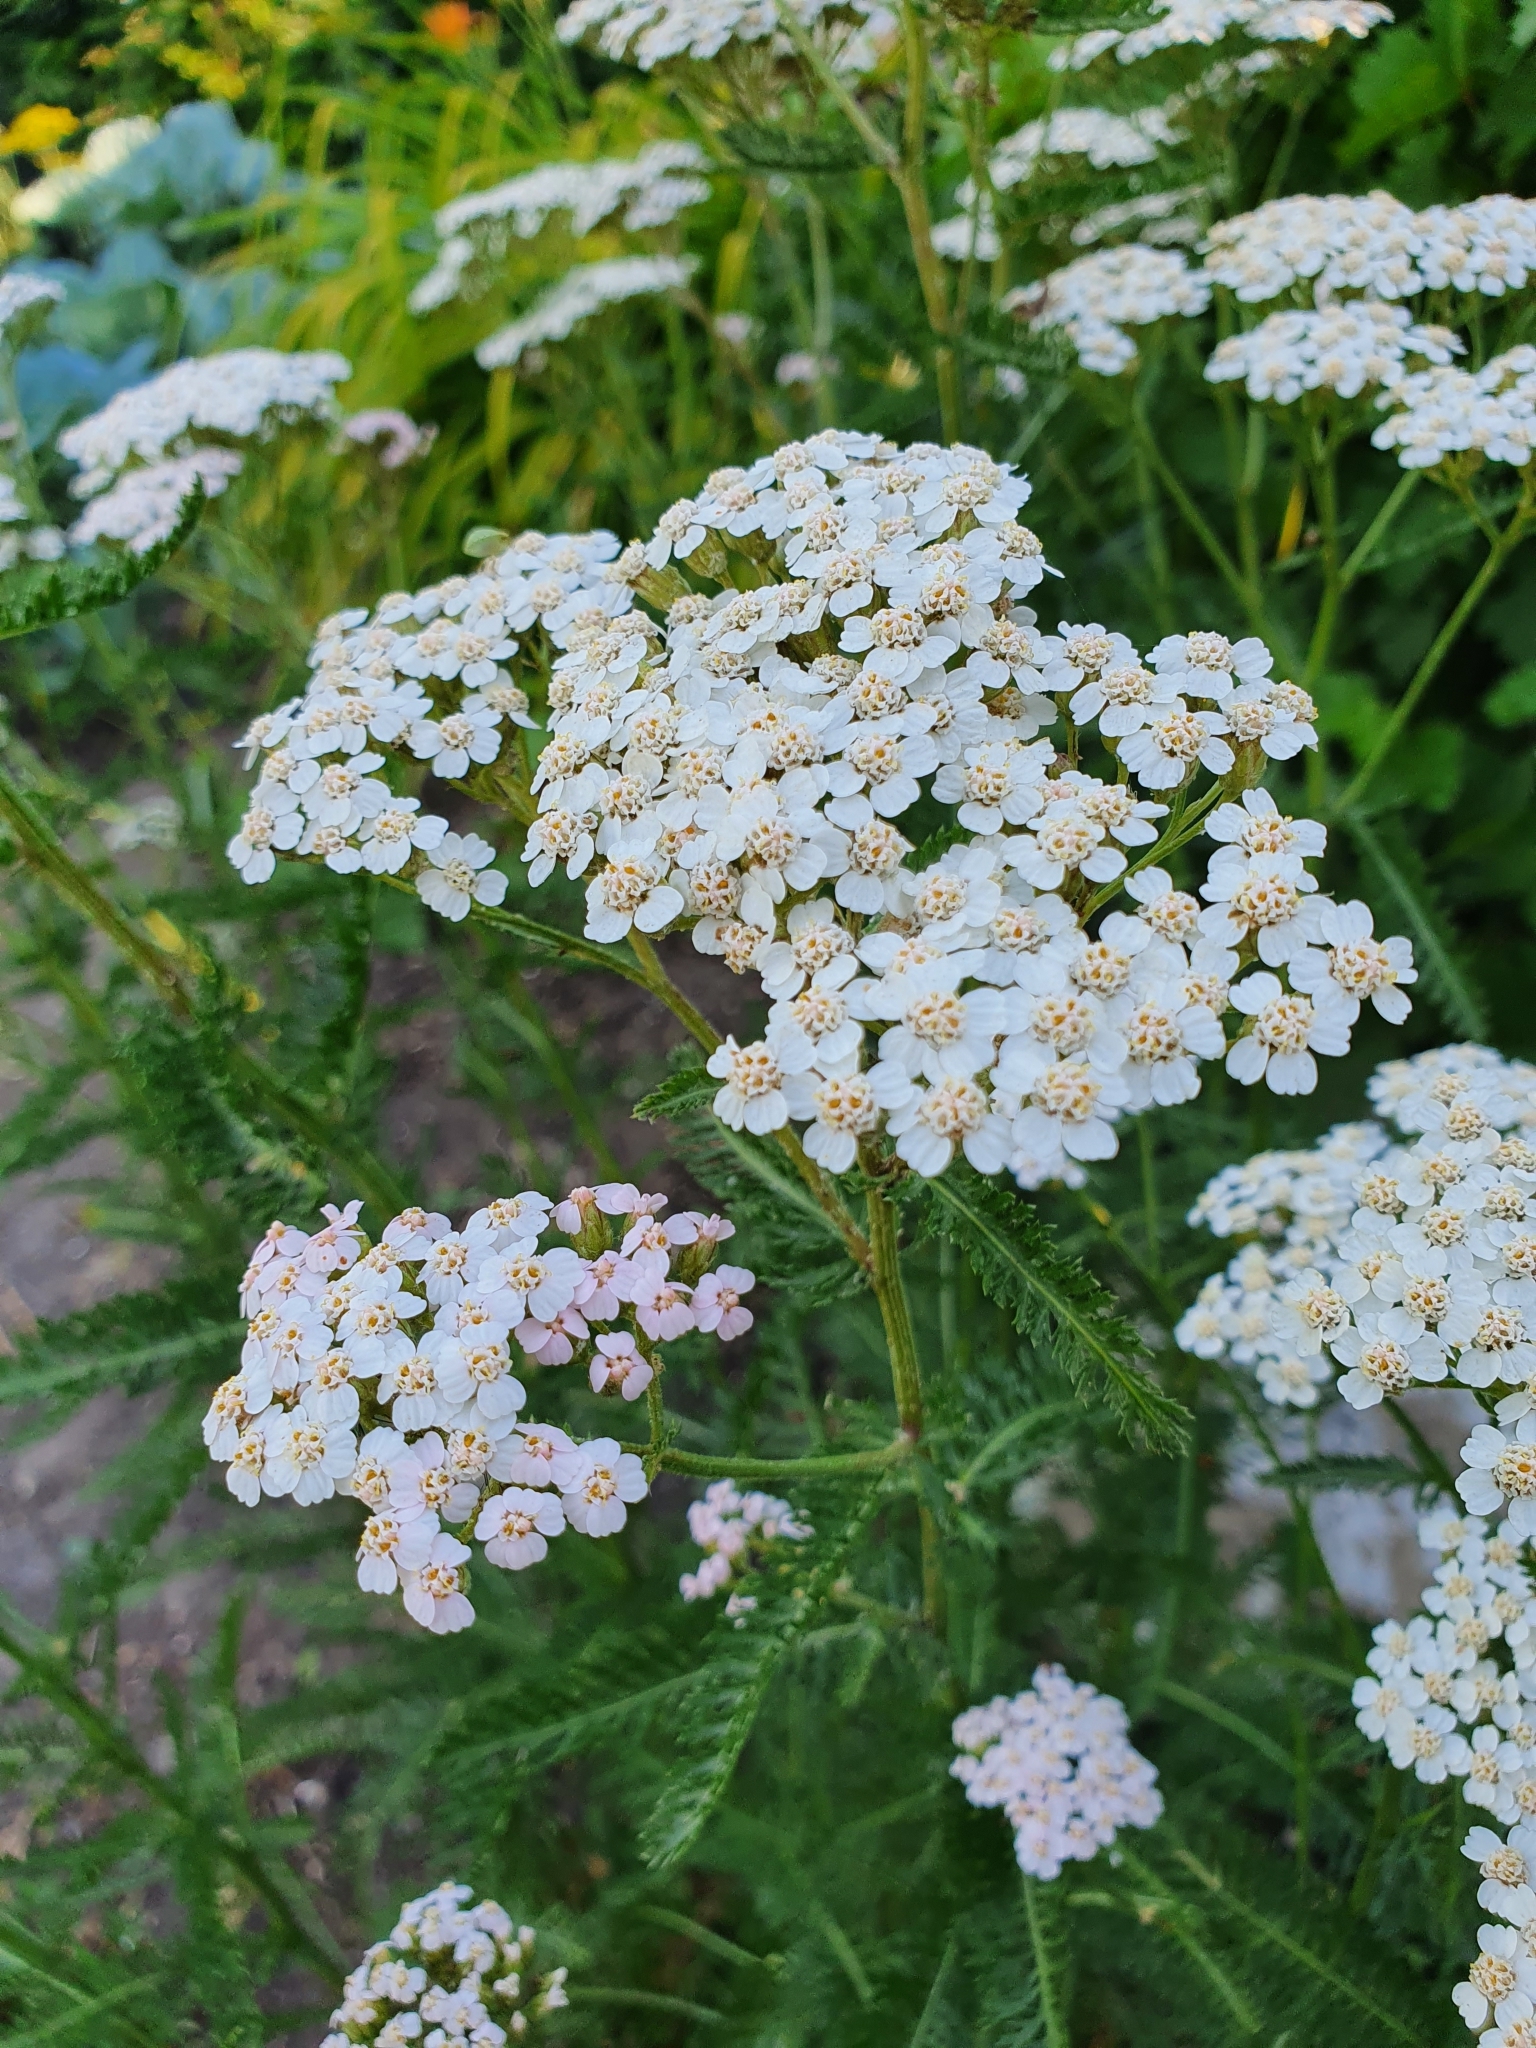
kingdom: Plantae
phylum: Tracheophyta
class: Magnoliopsida
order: Asterales
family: Asteraceae
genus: Achillea
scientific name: Achillea millefolium
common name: Yarrow
